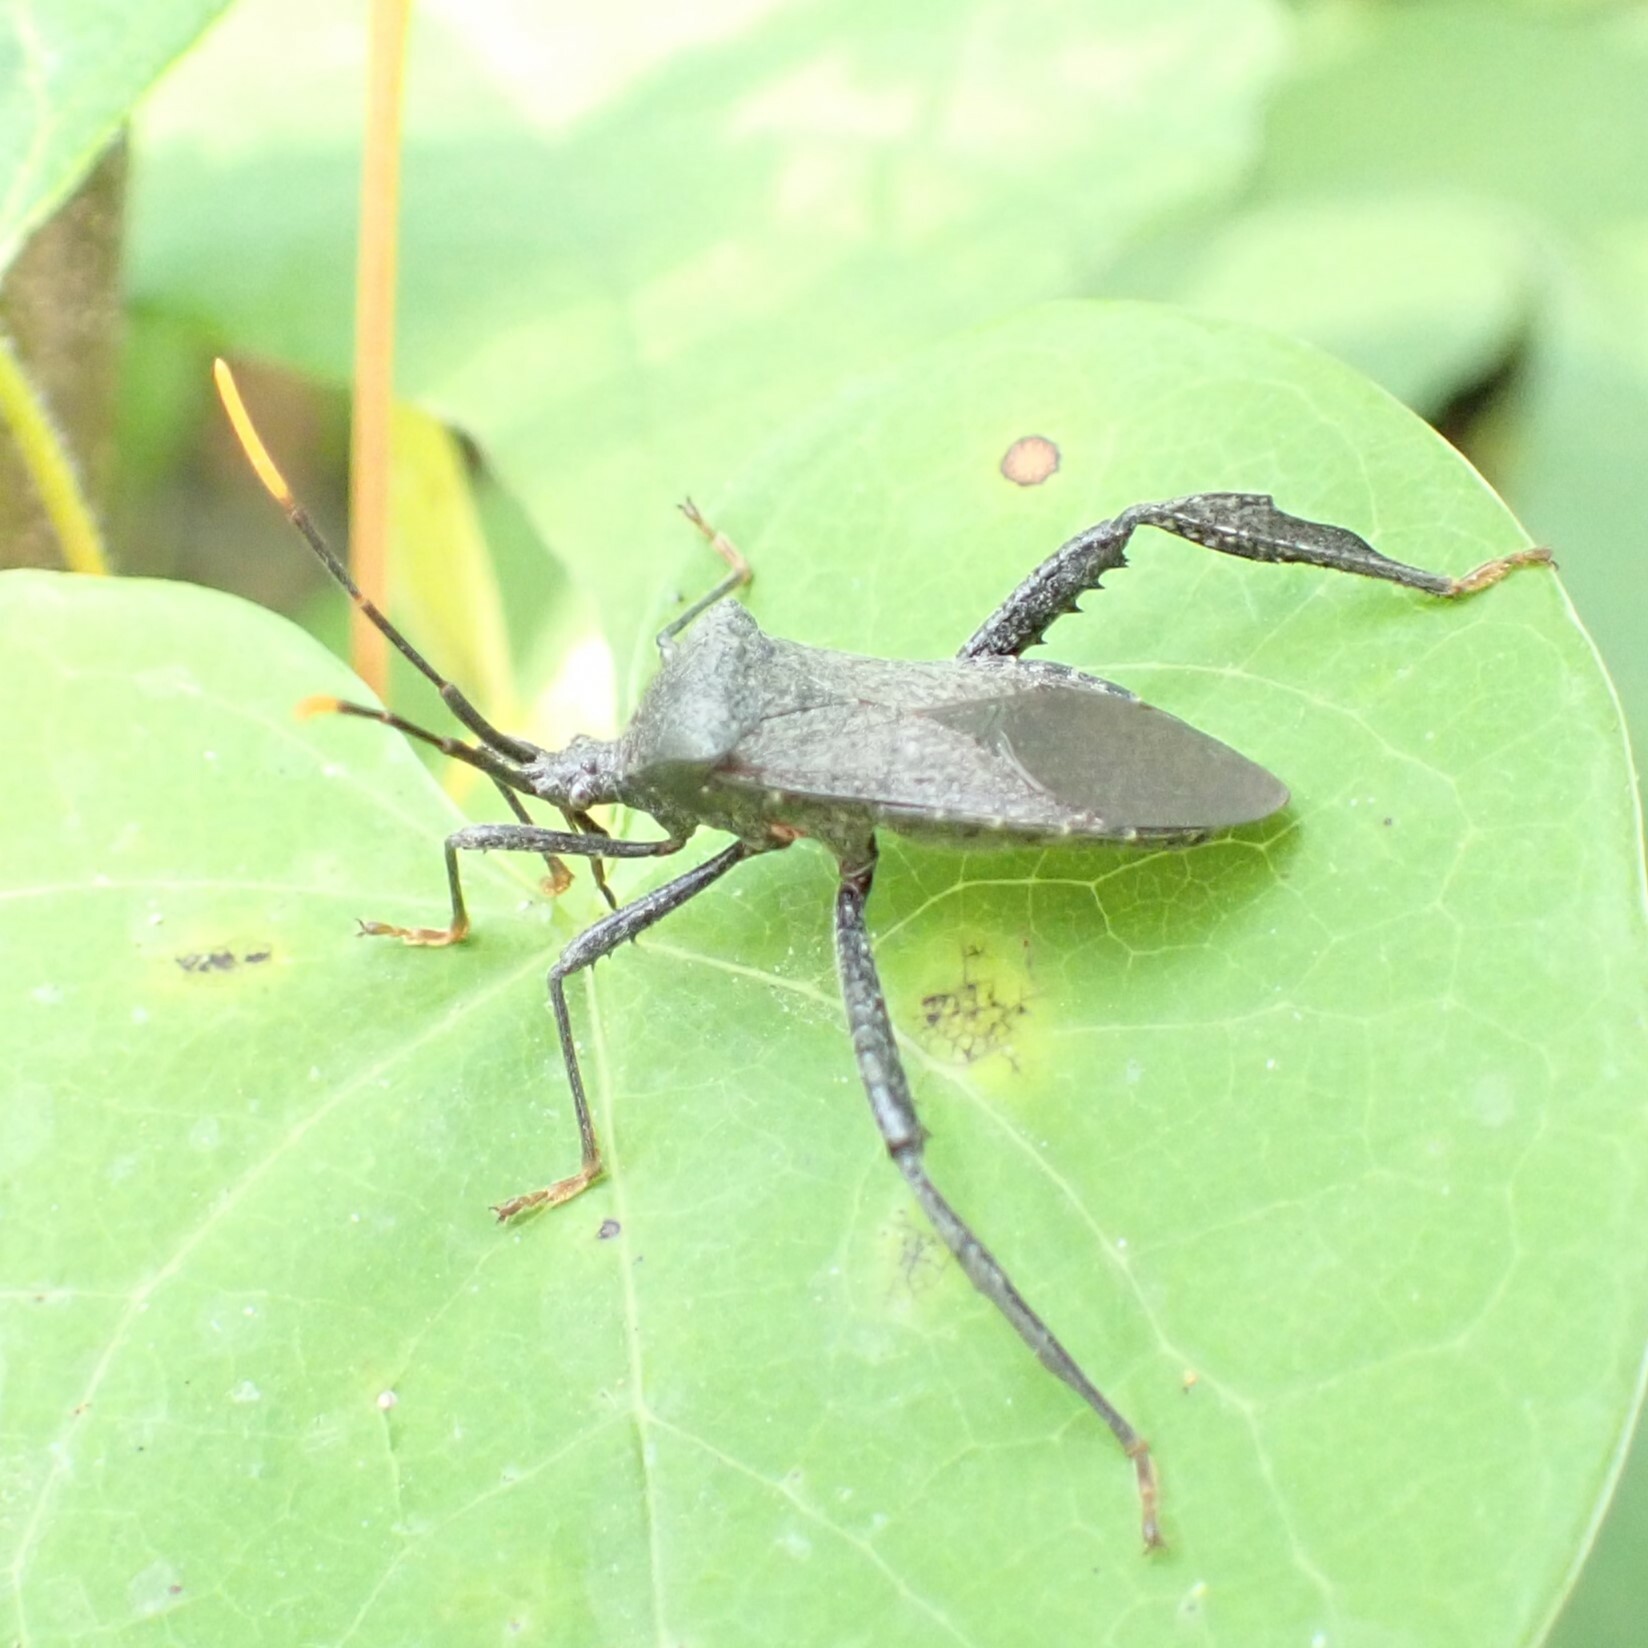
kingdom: Animalia
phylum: Arthropoda
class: Insecta
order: Hemiptera
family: Coreidae
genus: Acanthocephala
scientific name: Acanthocephala terminalis
